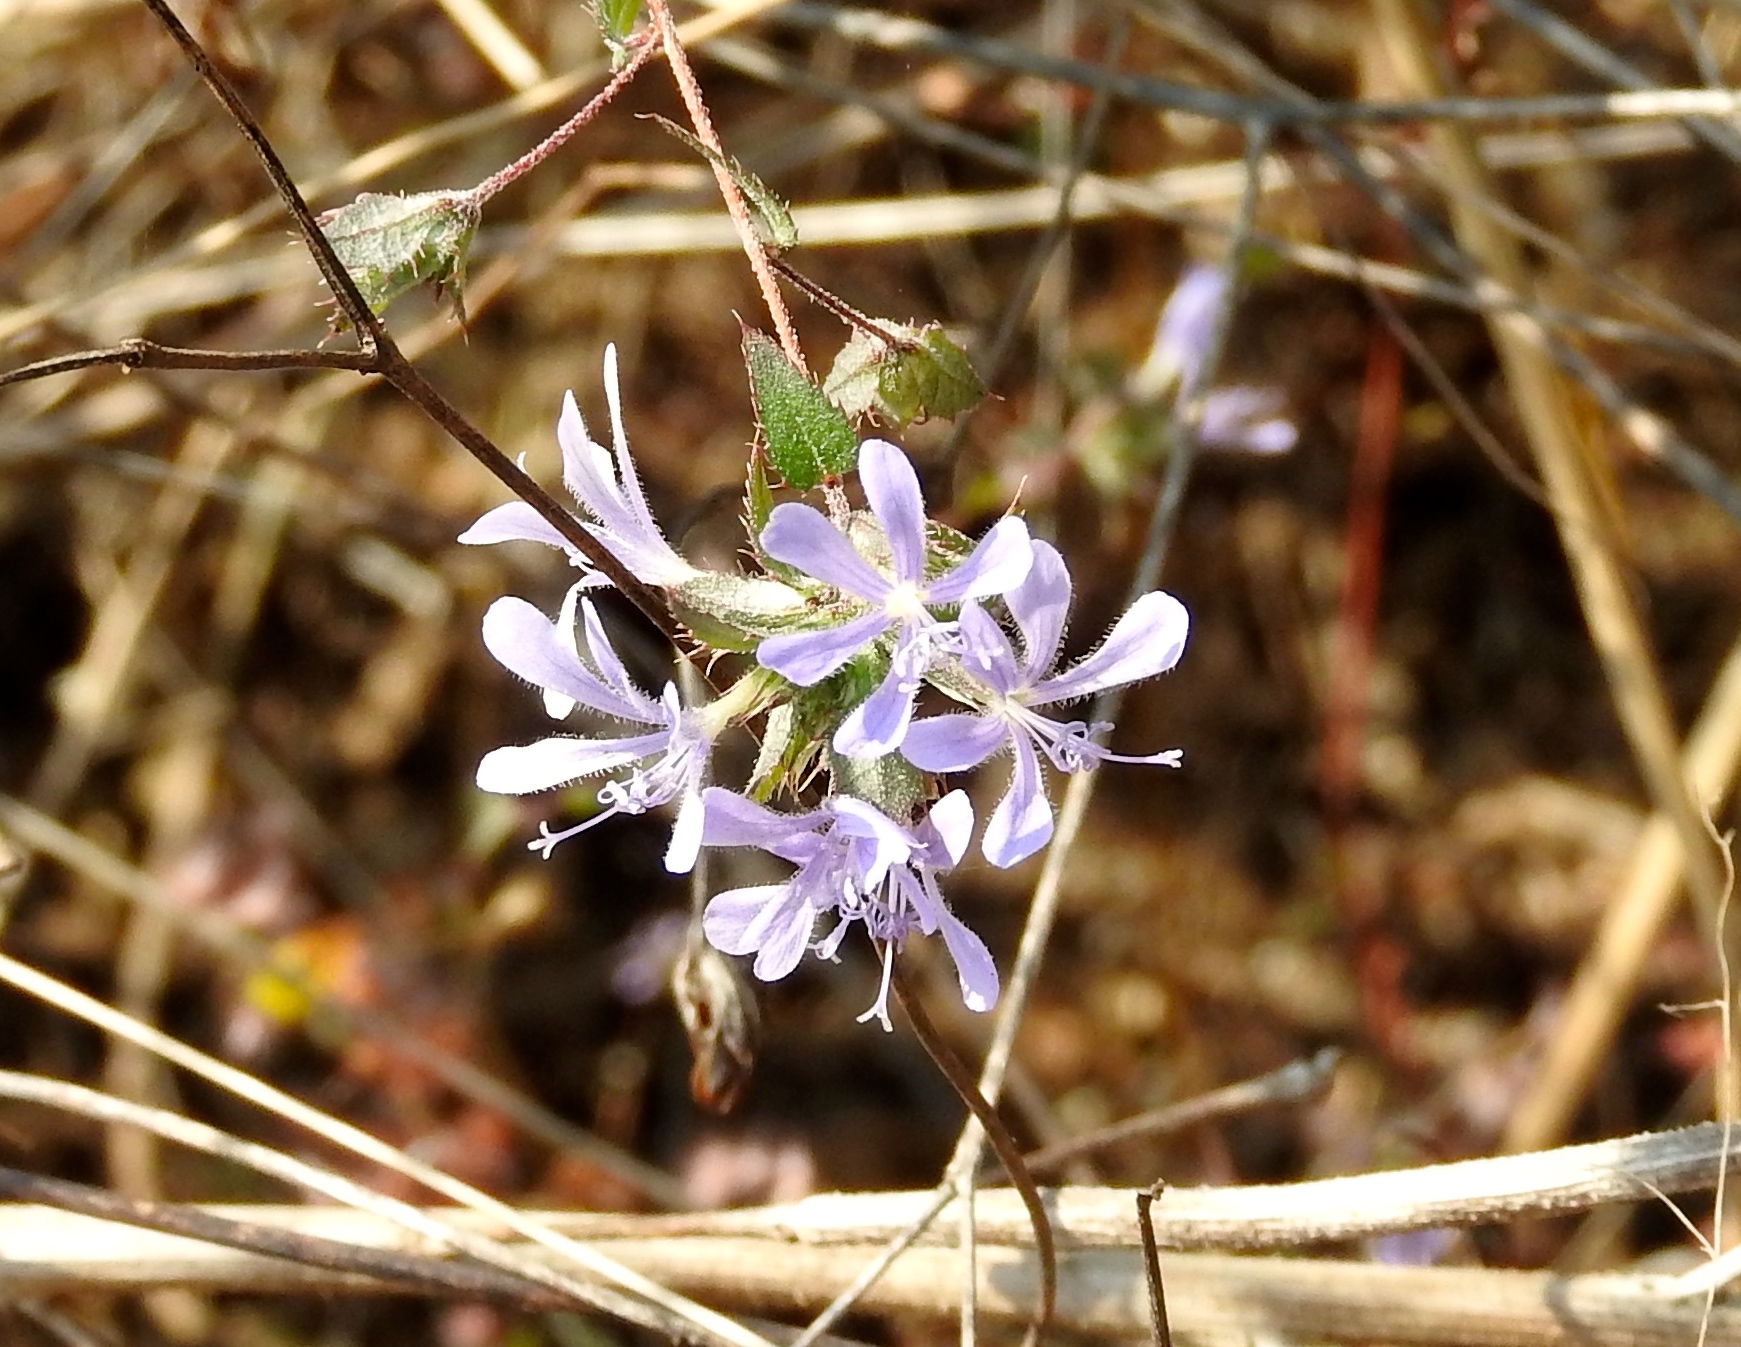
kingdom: Plantae
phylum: Tracheophyta
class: Magnoliopsida
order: Ericales
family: Polemoniaceae
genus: Loeselia
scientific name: Loeselia ciliata
